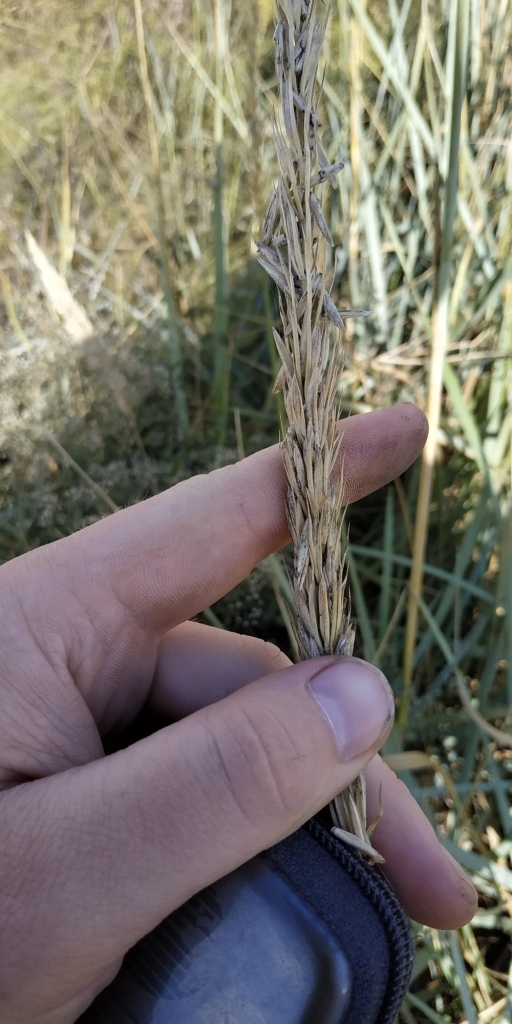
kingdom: Plantae
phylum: Tracheophyta
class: Liliopsida
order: Poales
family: Poaceae
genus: Leymus
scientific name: Leymus racemosus
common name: Mammoth wildrye
